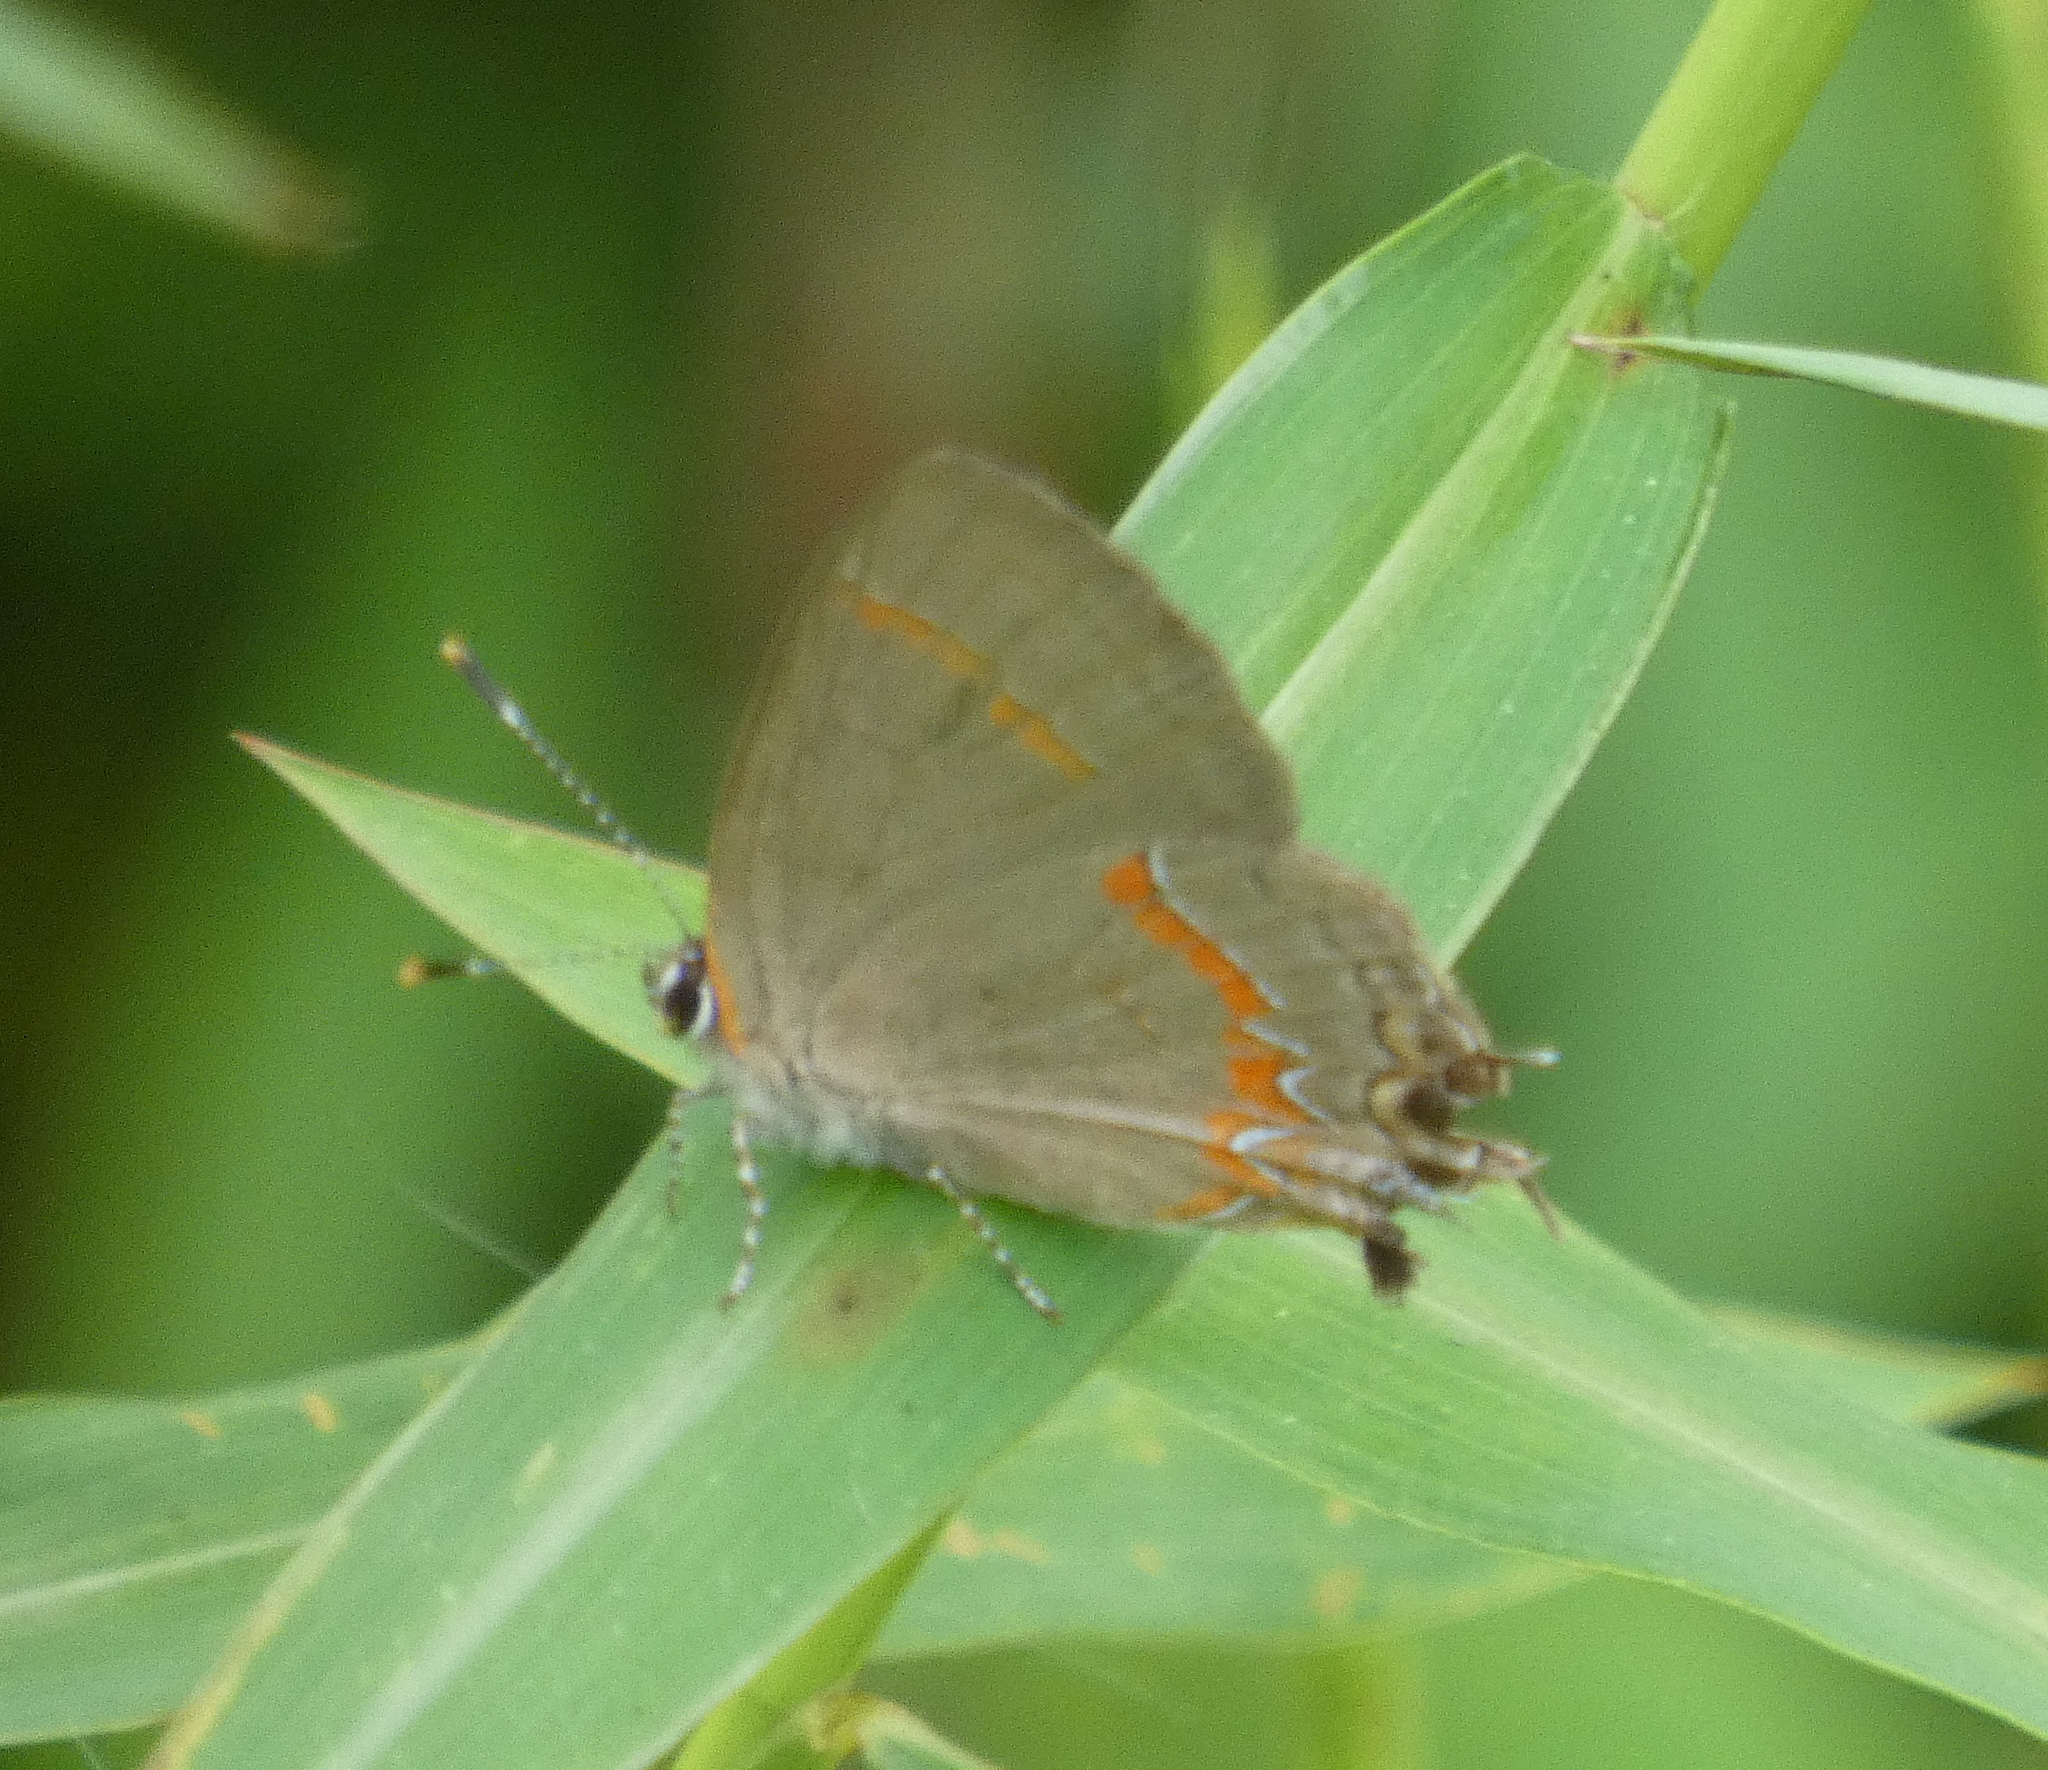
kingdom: Animalia
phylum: Arthropoda
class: Insecta
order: Lepidoptera
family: Lycaenidae
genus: Calycopis
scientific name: Calycopis cecrops
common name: Red-banded hairstreak
